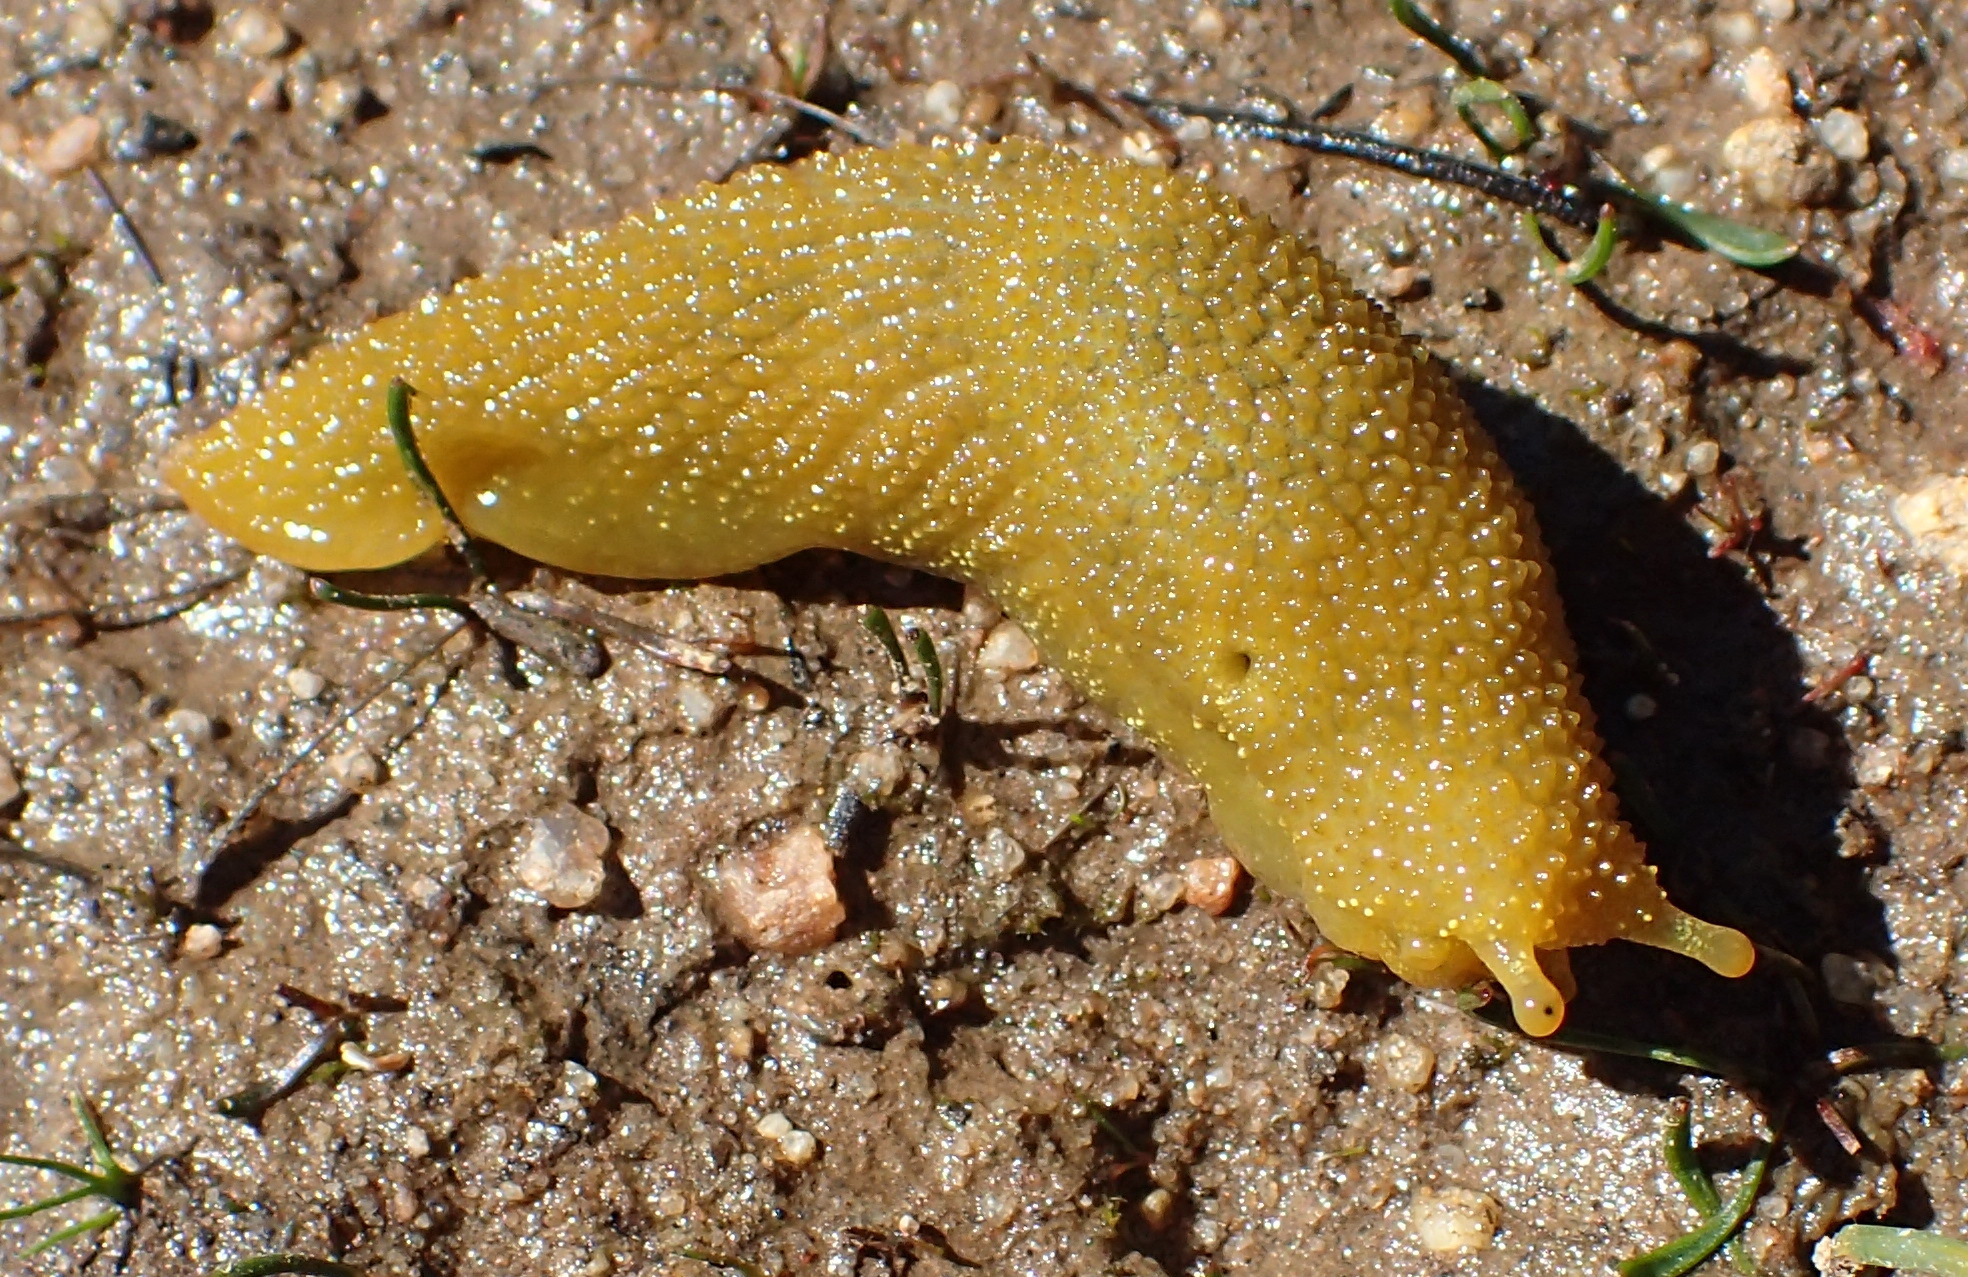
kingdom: Animalia
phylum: Mollusca
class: Gastropoda
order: Stylommatophora
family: Oopeltidae
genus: Oopelta
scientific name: Oopelta granulosa
